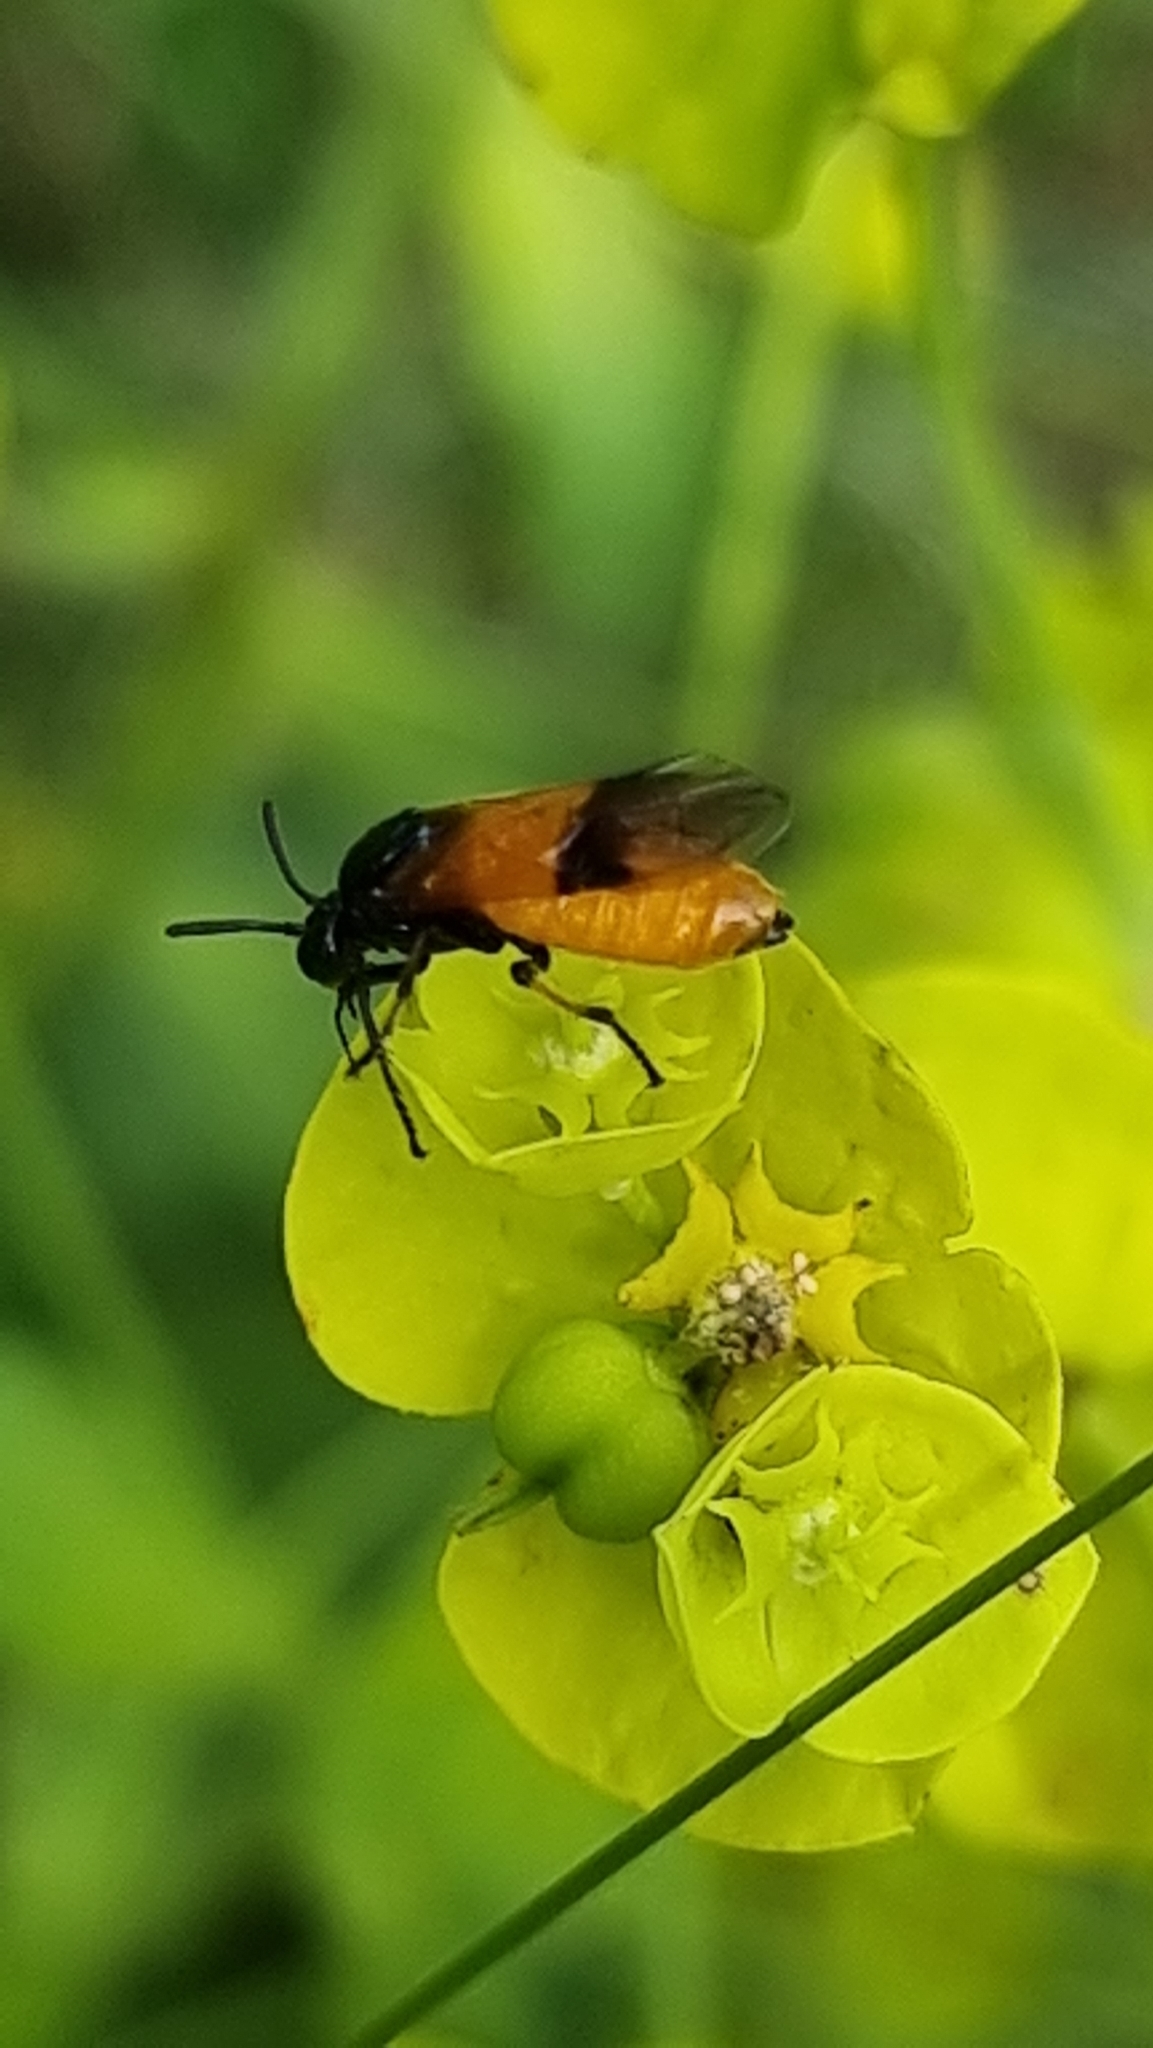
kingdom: Animalia
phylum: Arthropoda
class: Insecta
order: Hymenoptera
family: Argidae
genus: Arge
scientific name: Arge cyanocrocea
